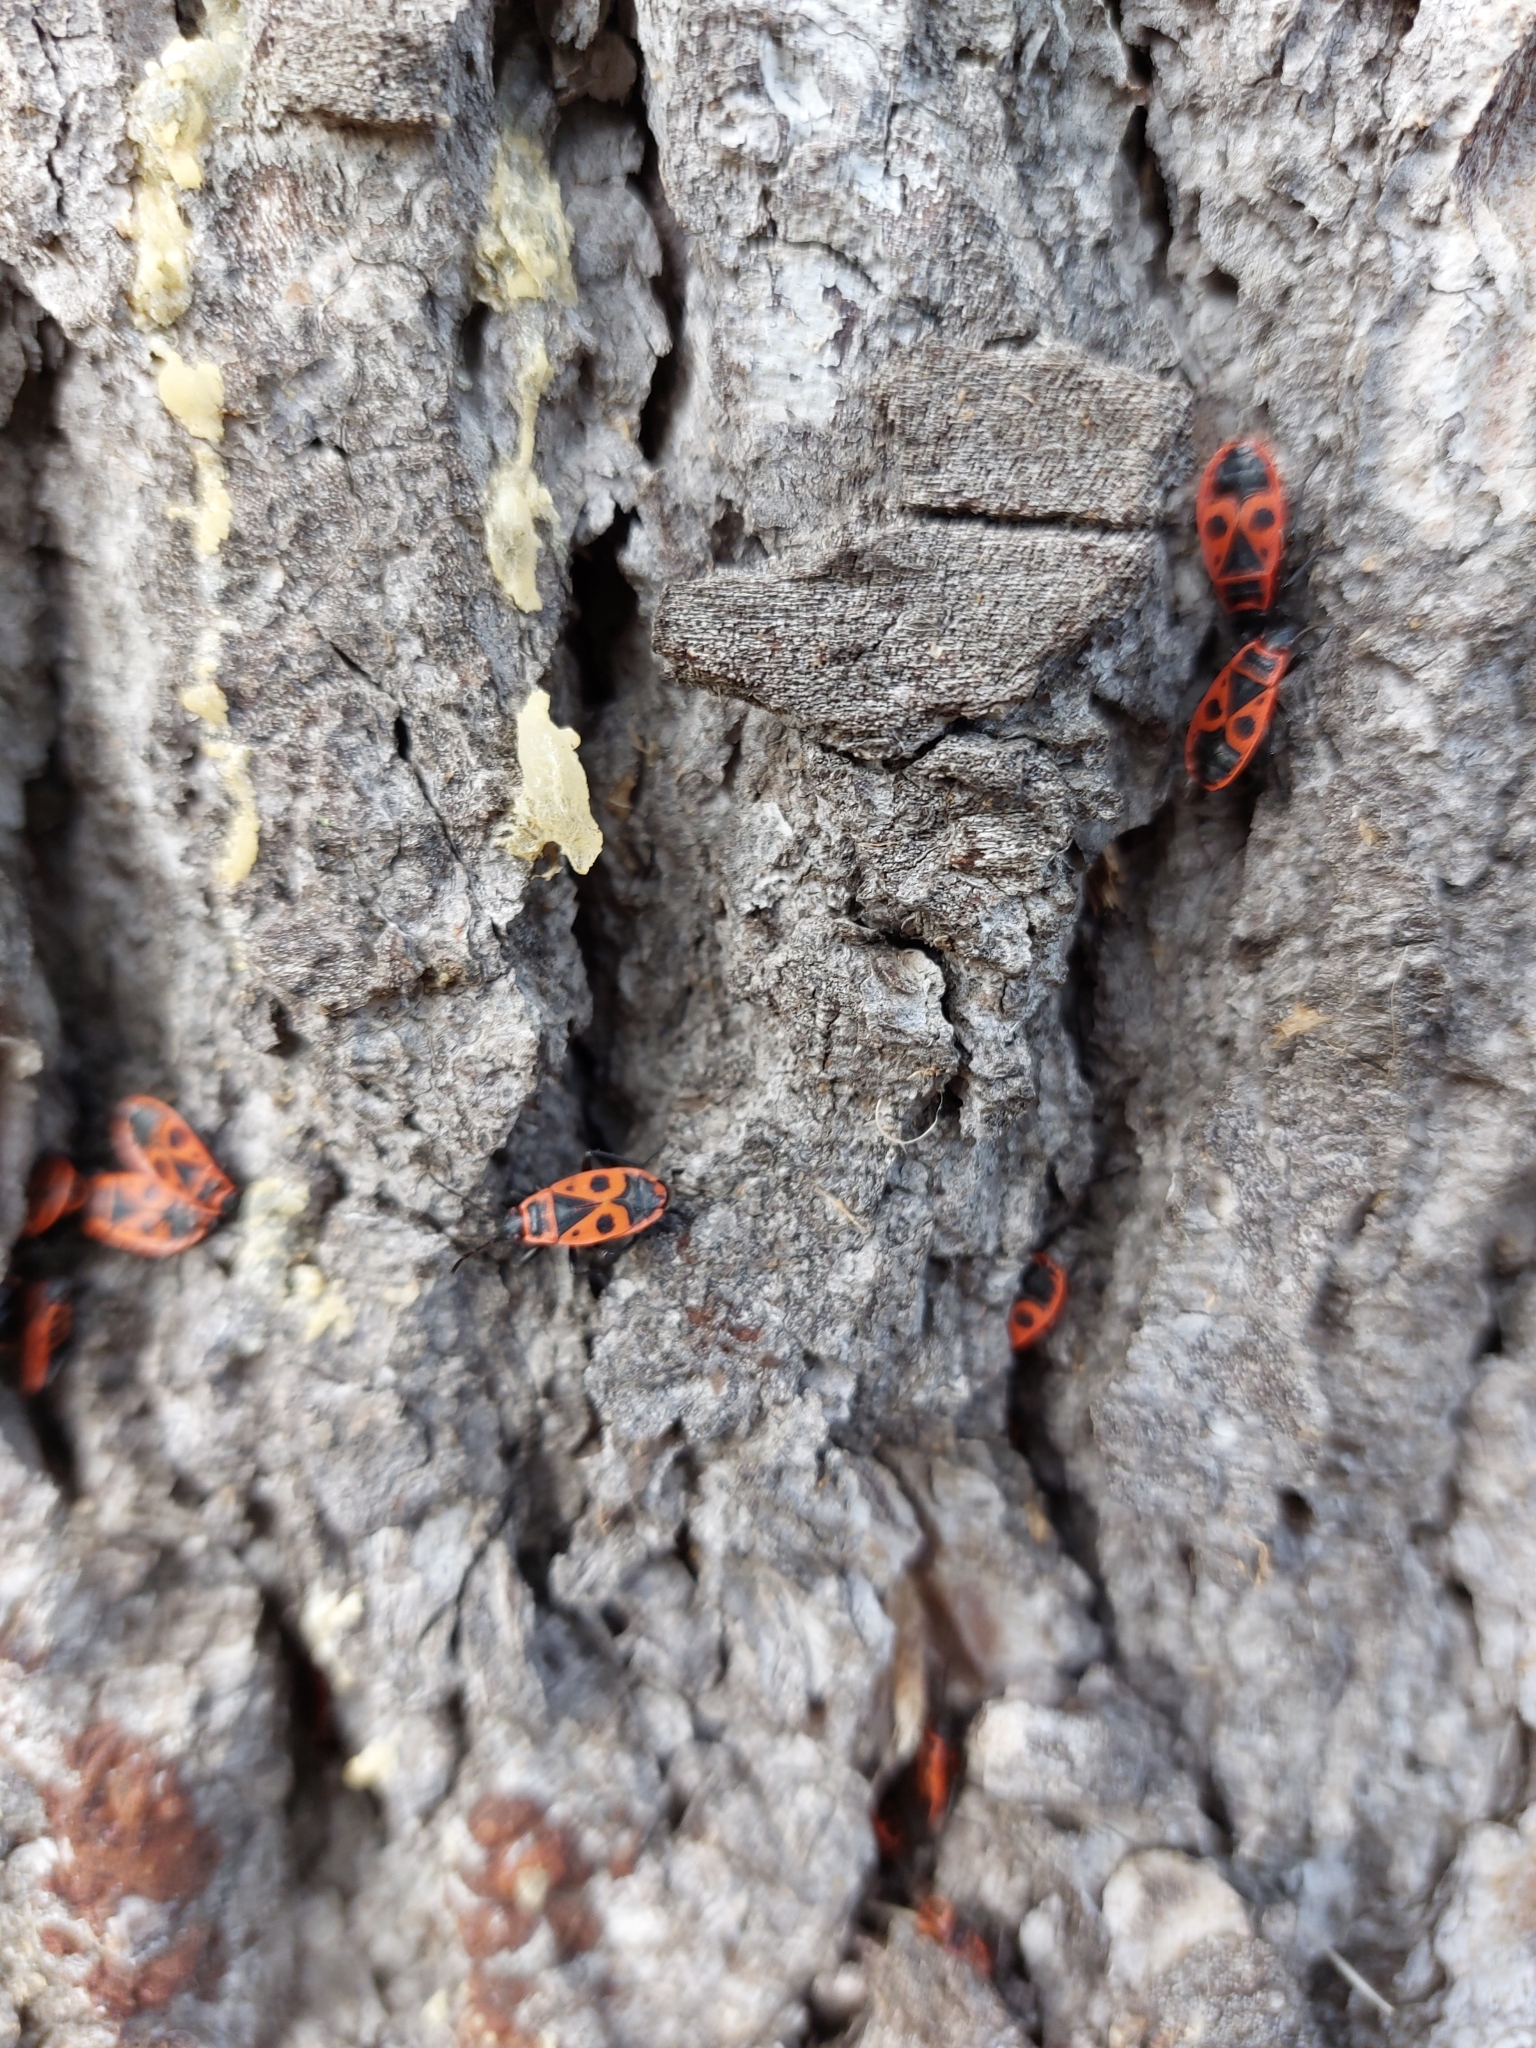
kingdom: Animalia
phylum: Arthropoda
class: Insecta
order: Hemiptera
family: Pyrrhocoridae
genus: Pyrrhocoris
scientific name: Pyrrhocoris apterus
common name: Firebug
